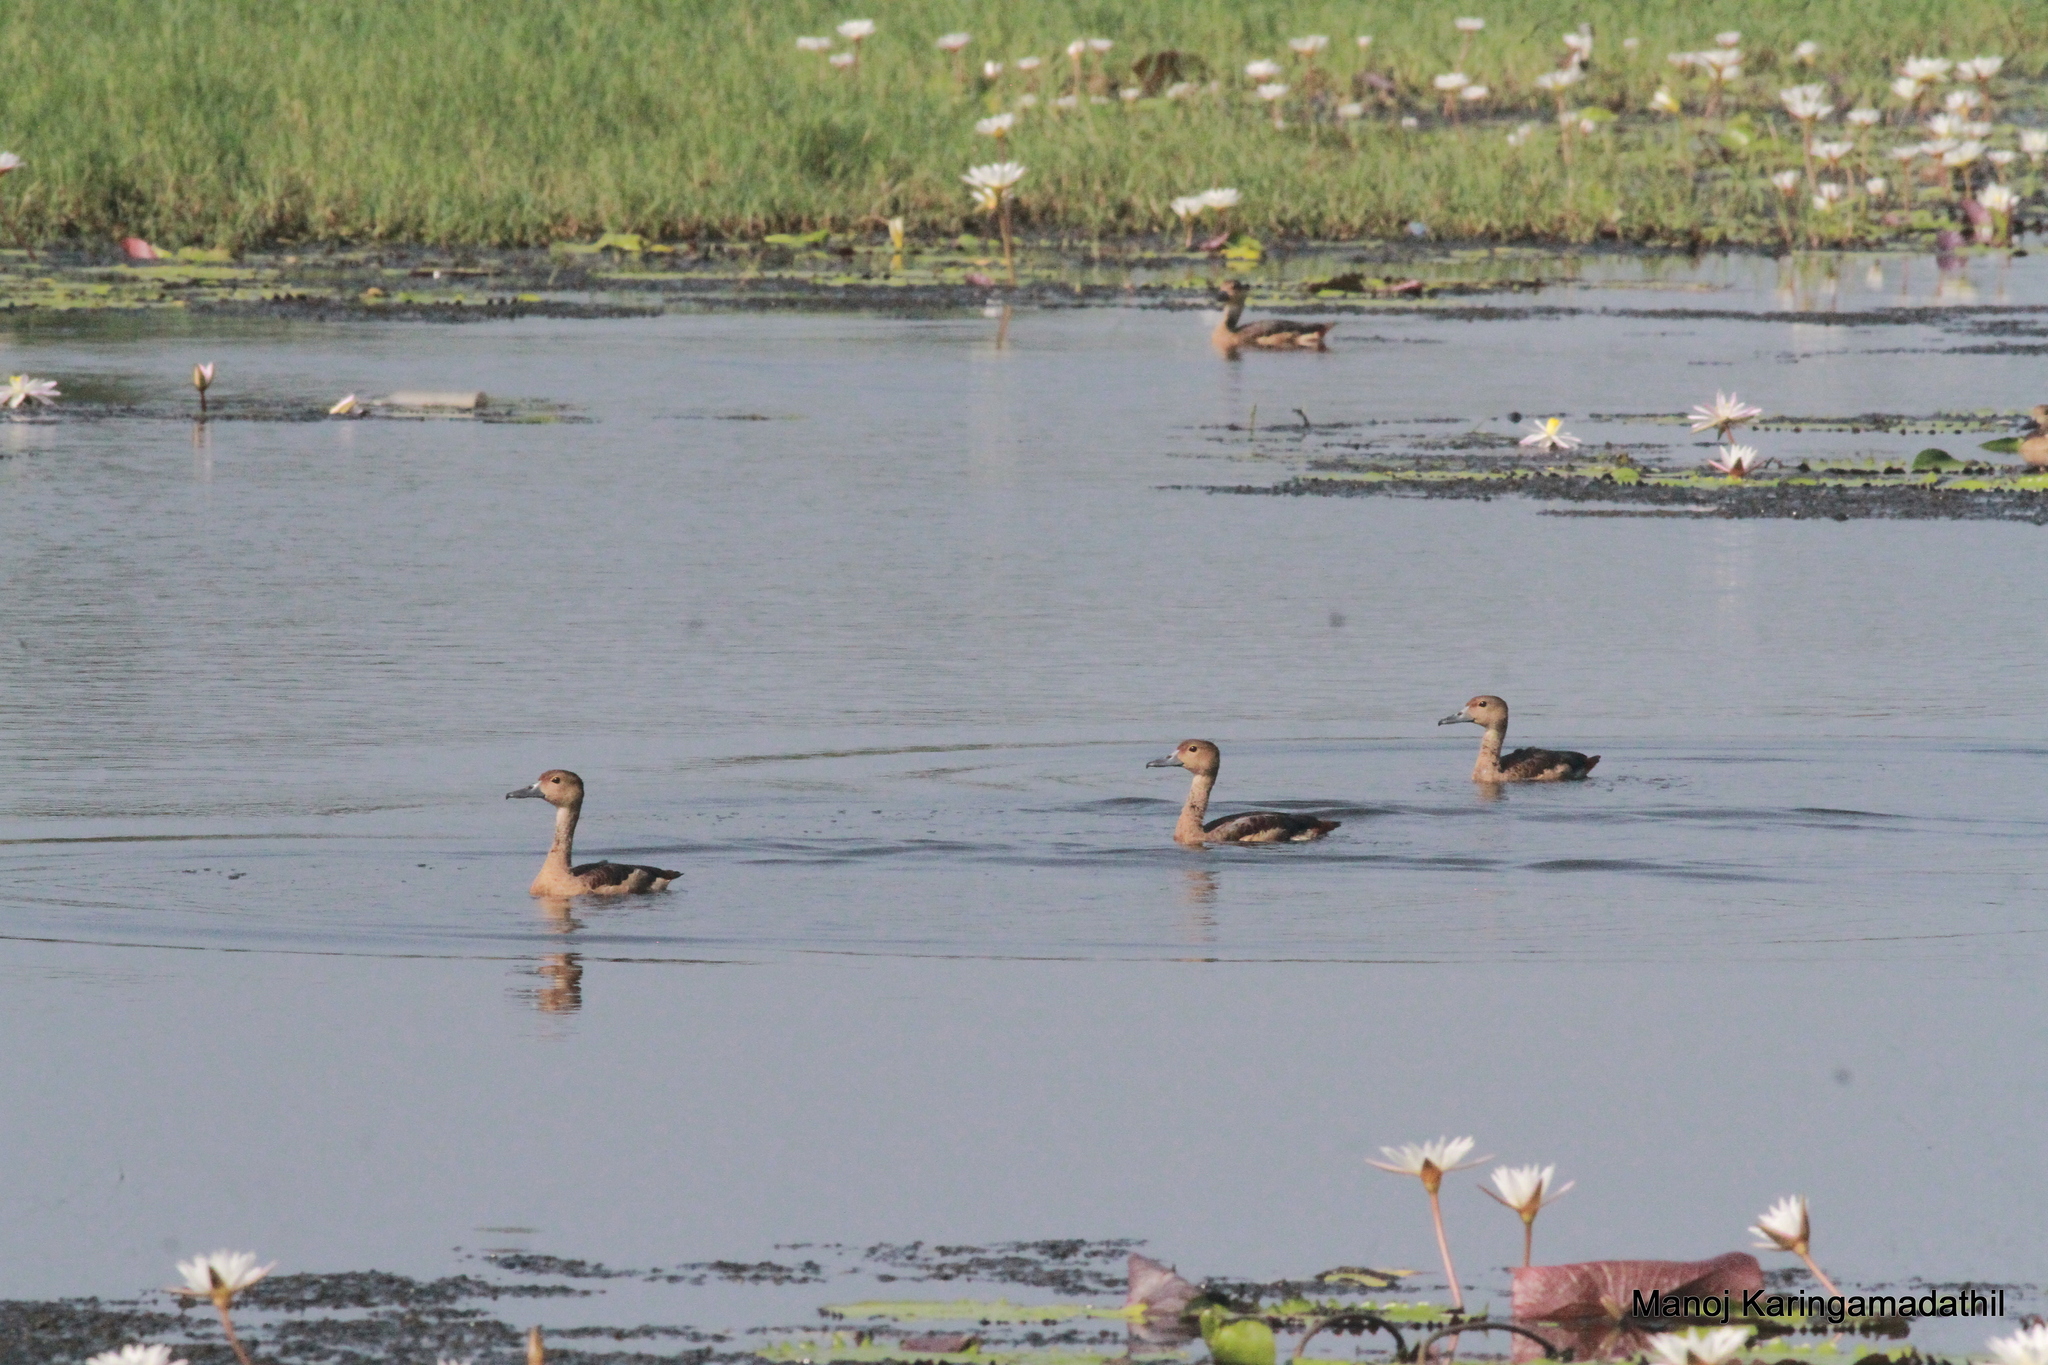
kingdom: Animalia
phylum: Chordata
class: Aves
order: Anseriformes
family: Anatidae
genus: Dendrocygna
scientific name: Dendrocygna javanica
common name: Lesser whistling-duck
